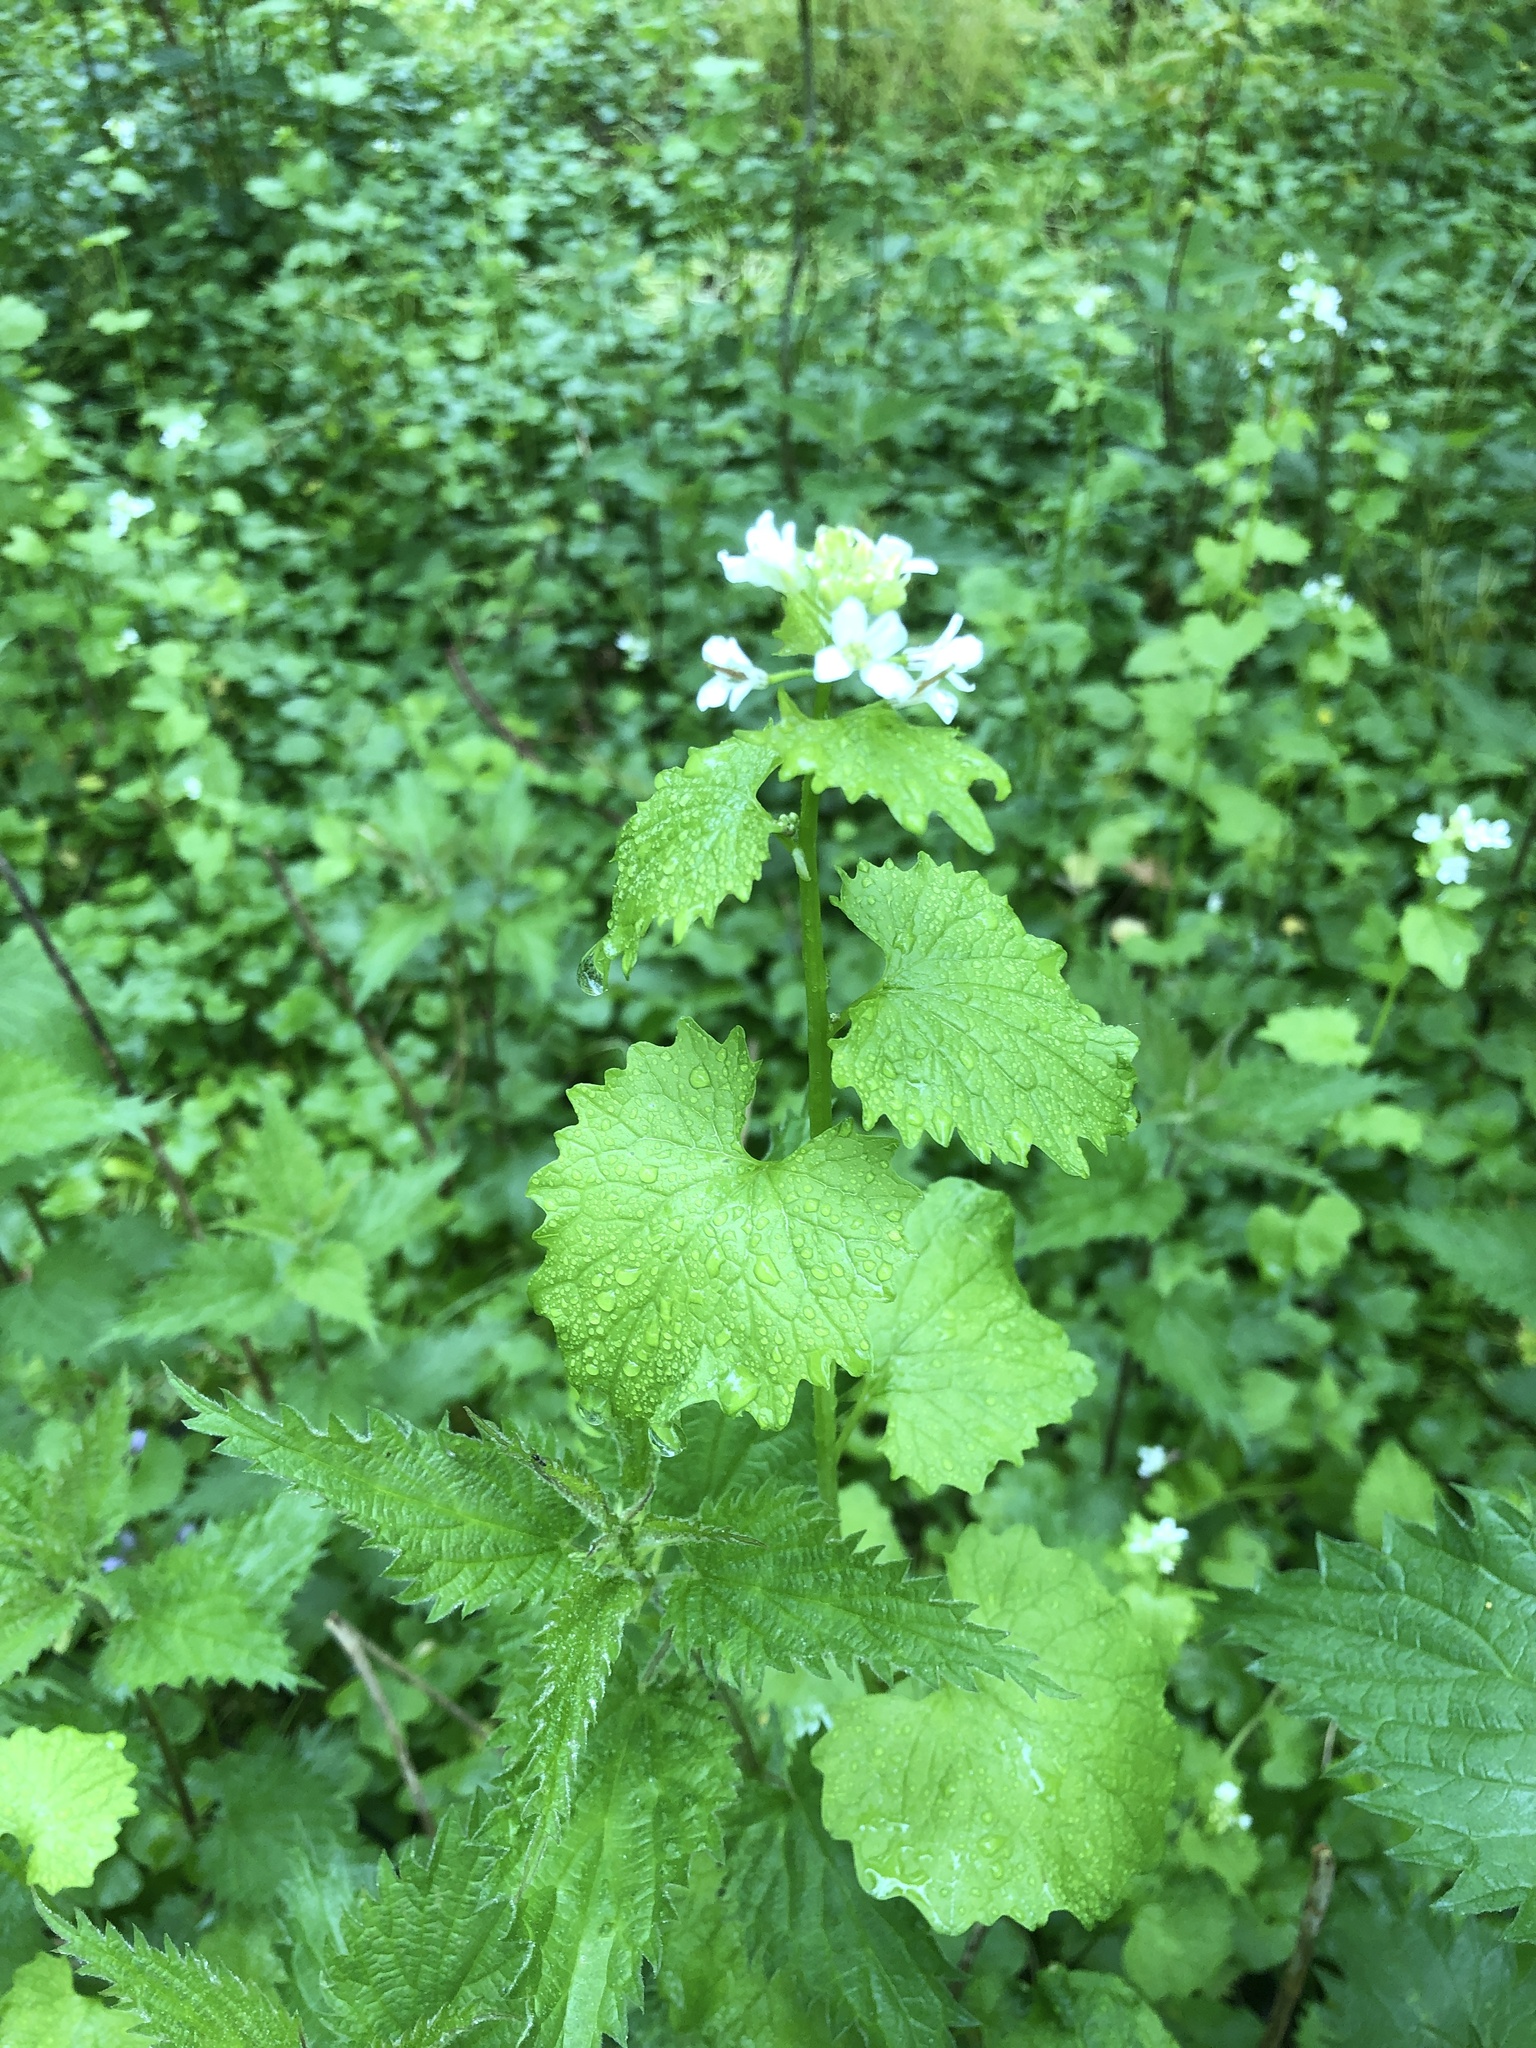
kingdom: Plantae
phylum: Tracheophyta
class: Magnoliopsida
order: Brassicales
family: Brassicaceae
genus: Alliaria
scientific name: Alliaria petiolata
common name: Garlic mustard
